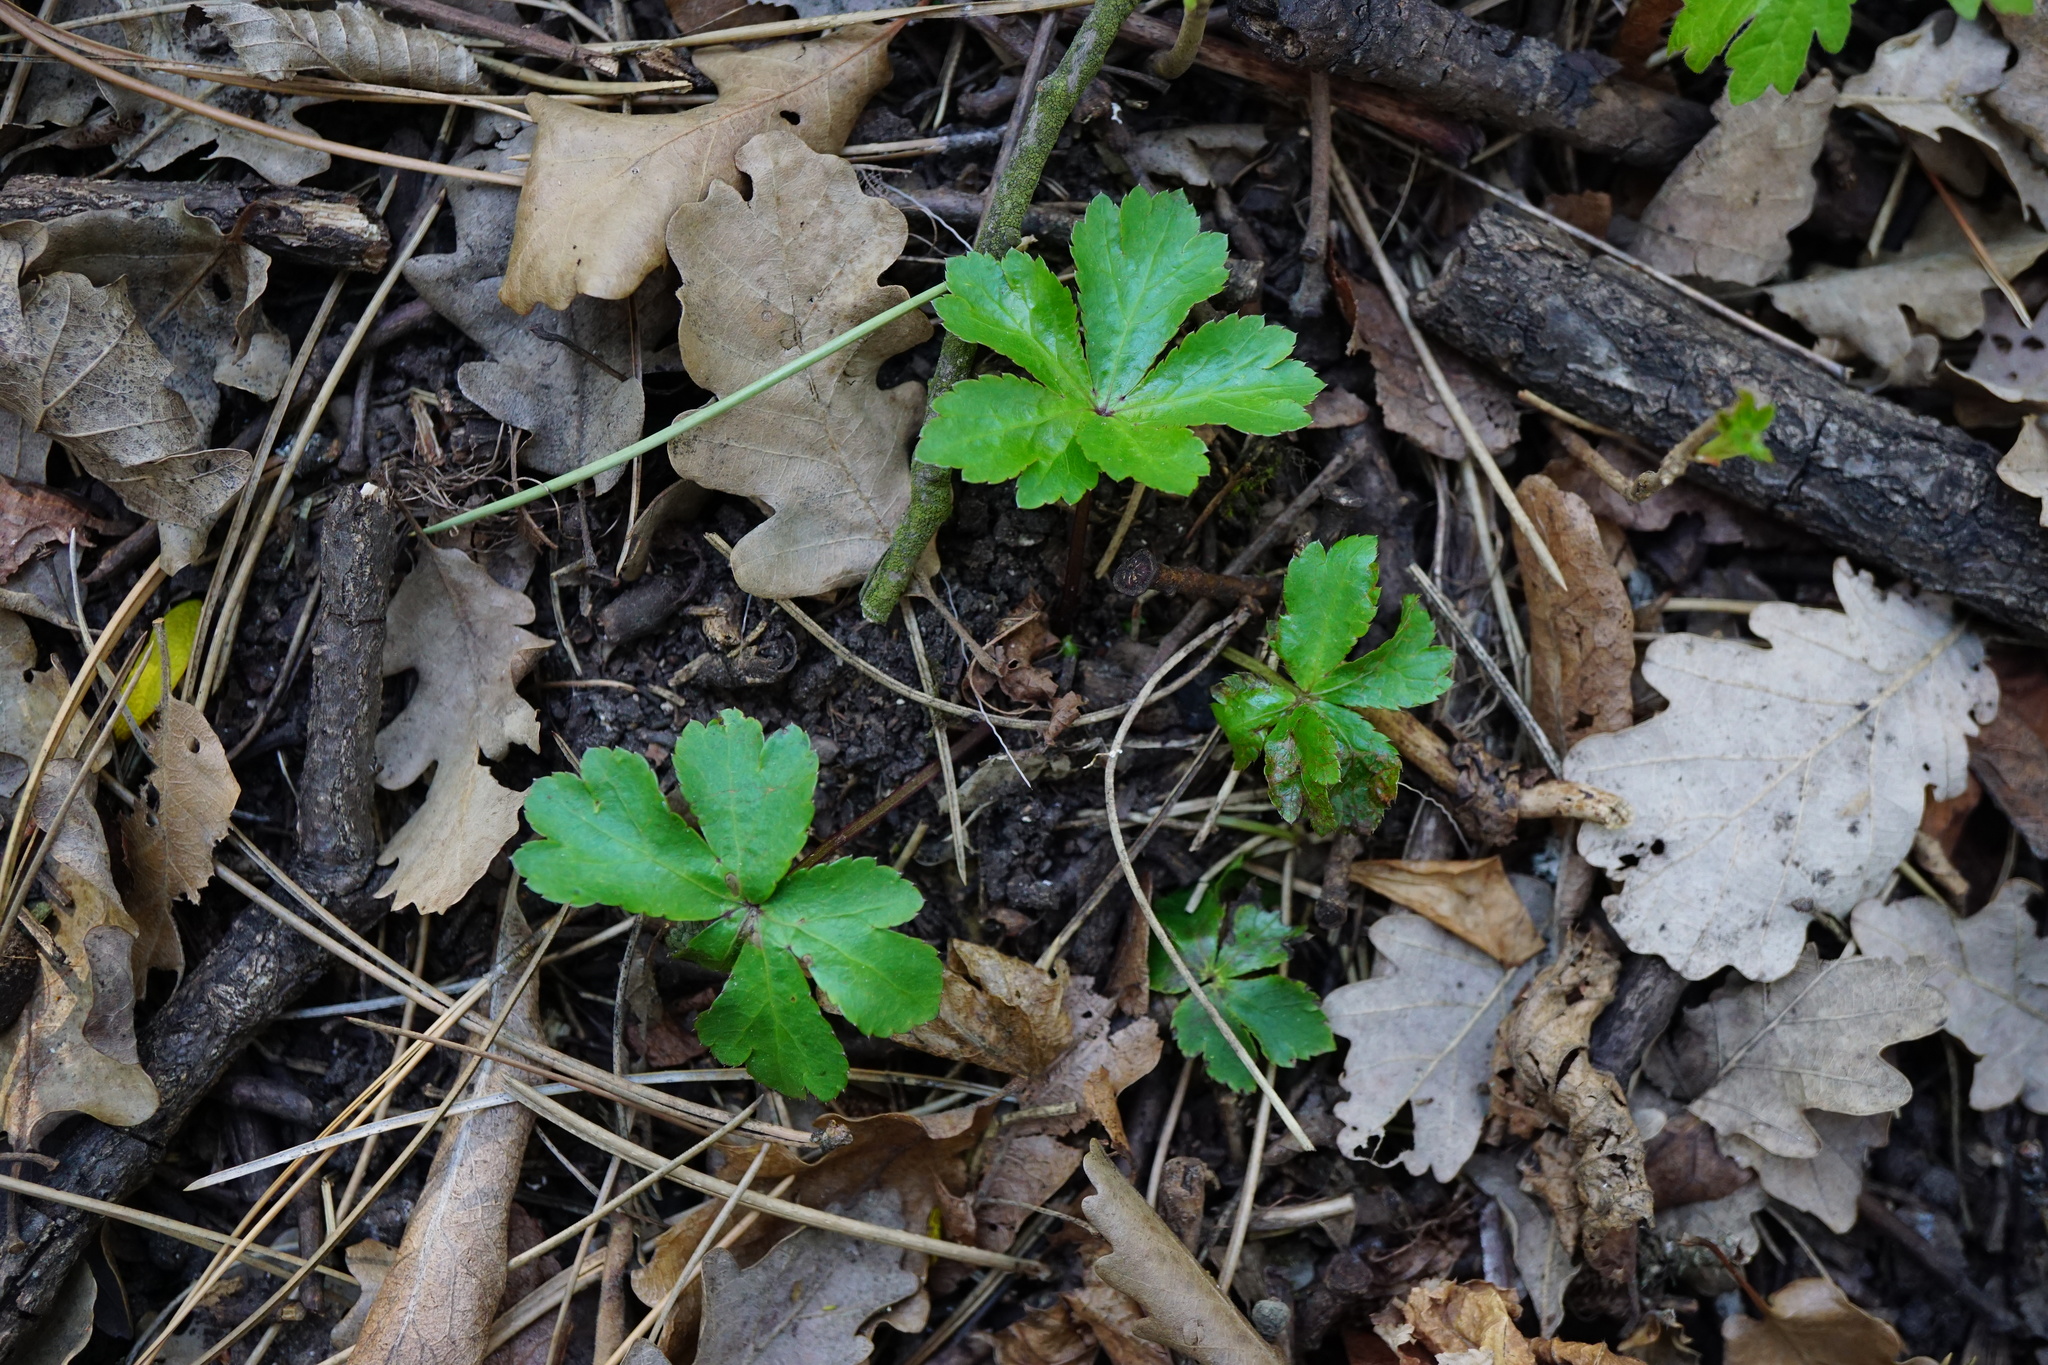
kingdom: Plantae
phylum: Tracheophyta
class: Magnoliopsida
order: Apiales
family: Apiaceae
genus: Sanicula
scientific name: Sanicula europaea
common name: Sanicle
